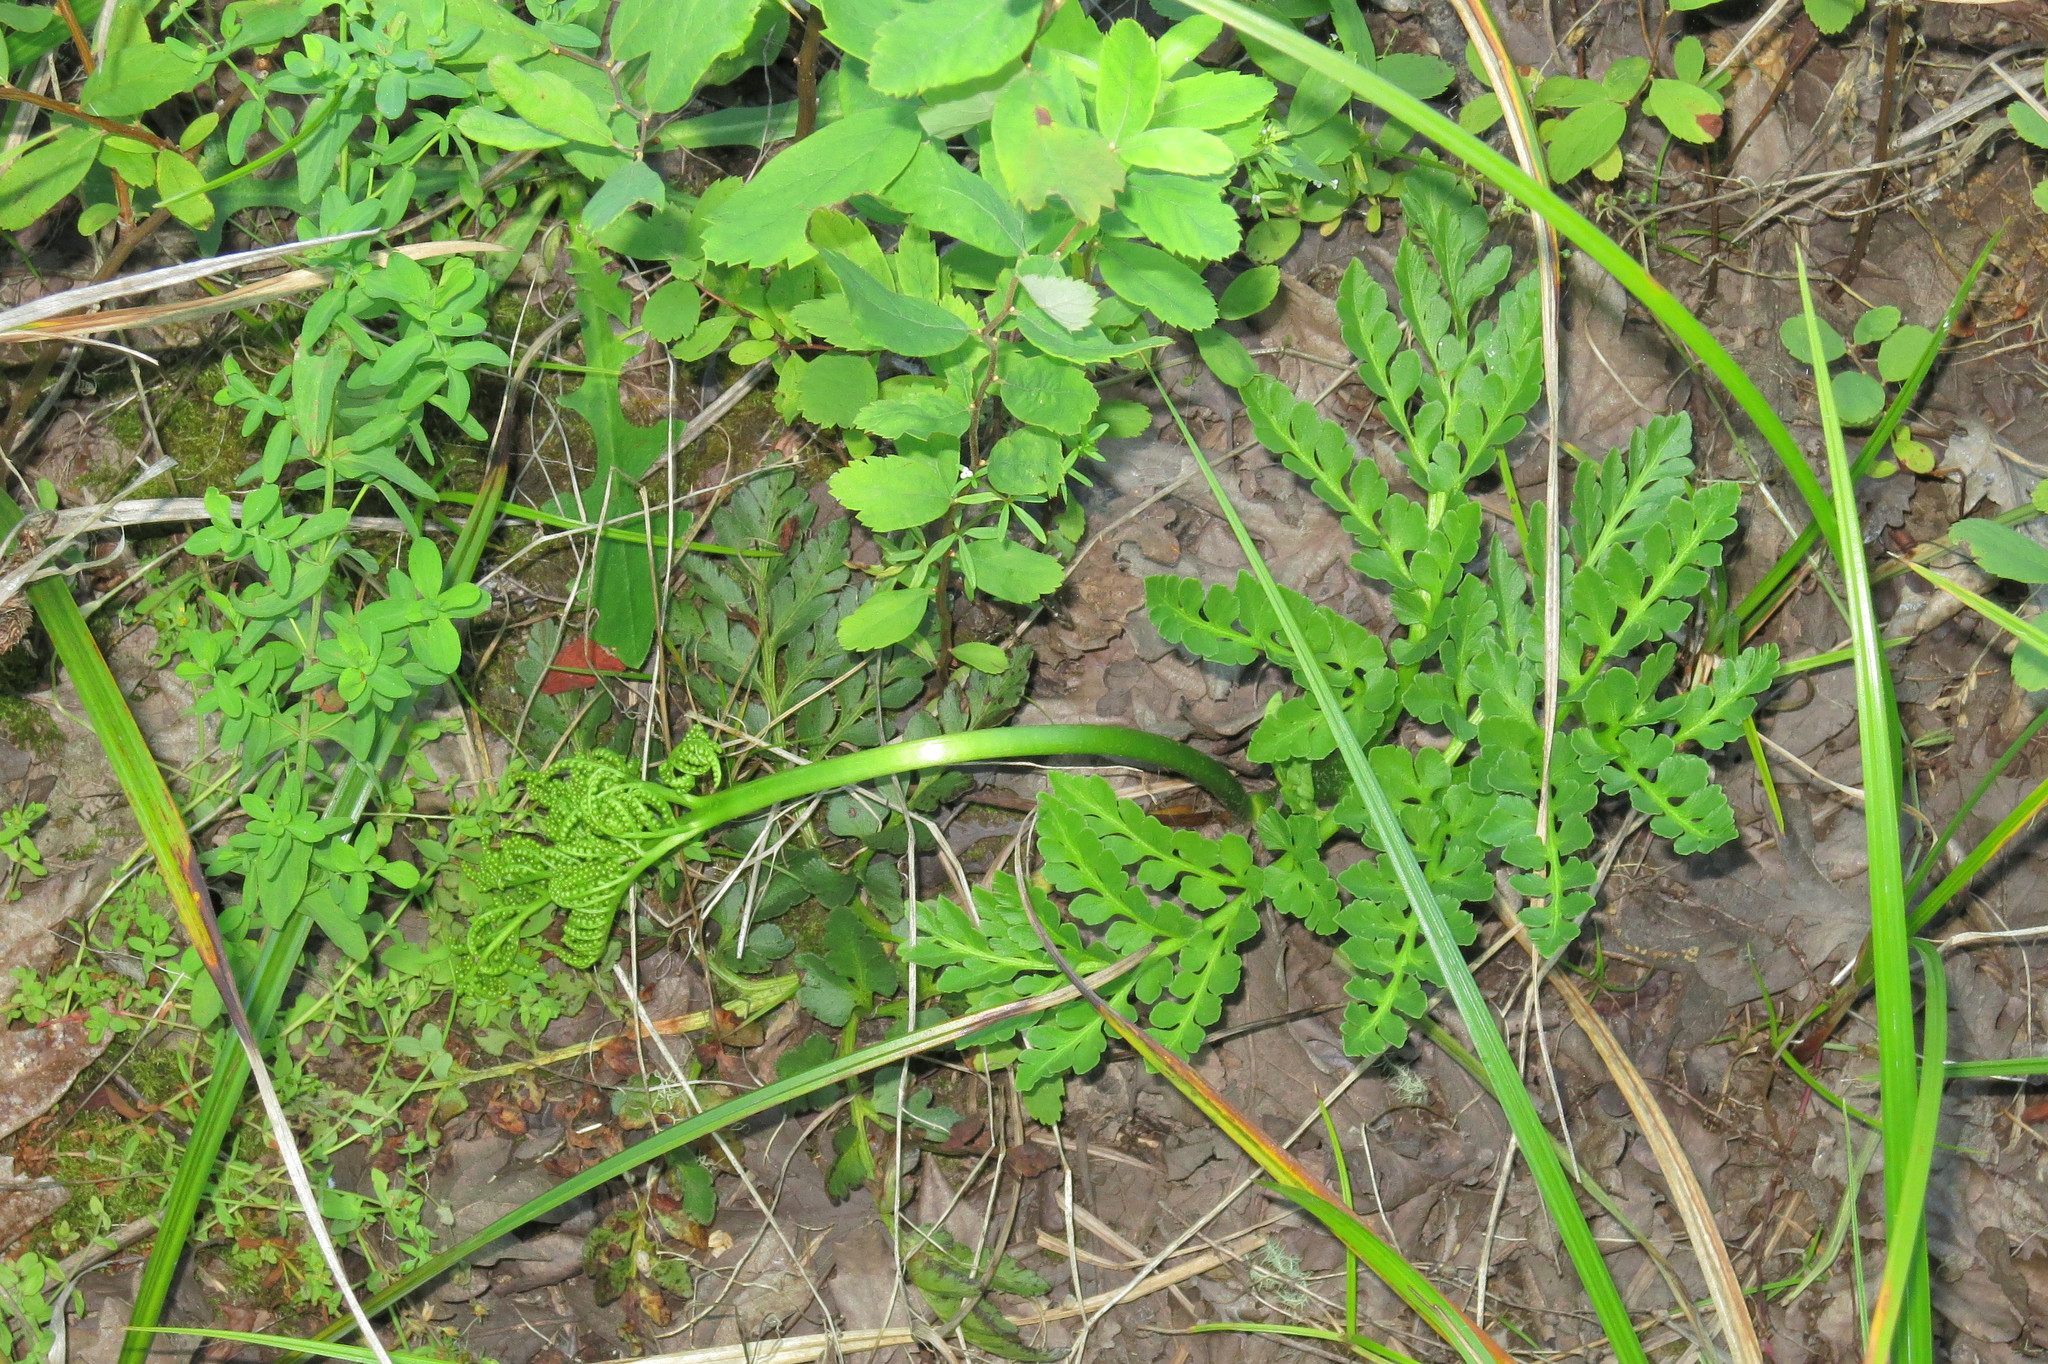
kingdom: Plantae
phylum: Tracheophyta
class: Polypodiopsida
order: Ophioglossales
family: Ophioglossaceae
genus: Sceptridium
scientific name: Sceptridium multifidum
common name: Leathery grape fern
